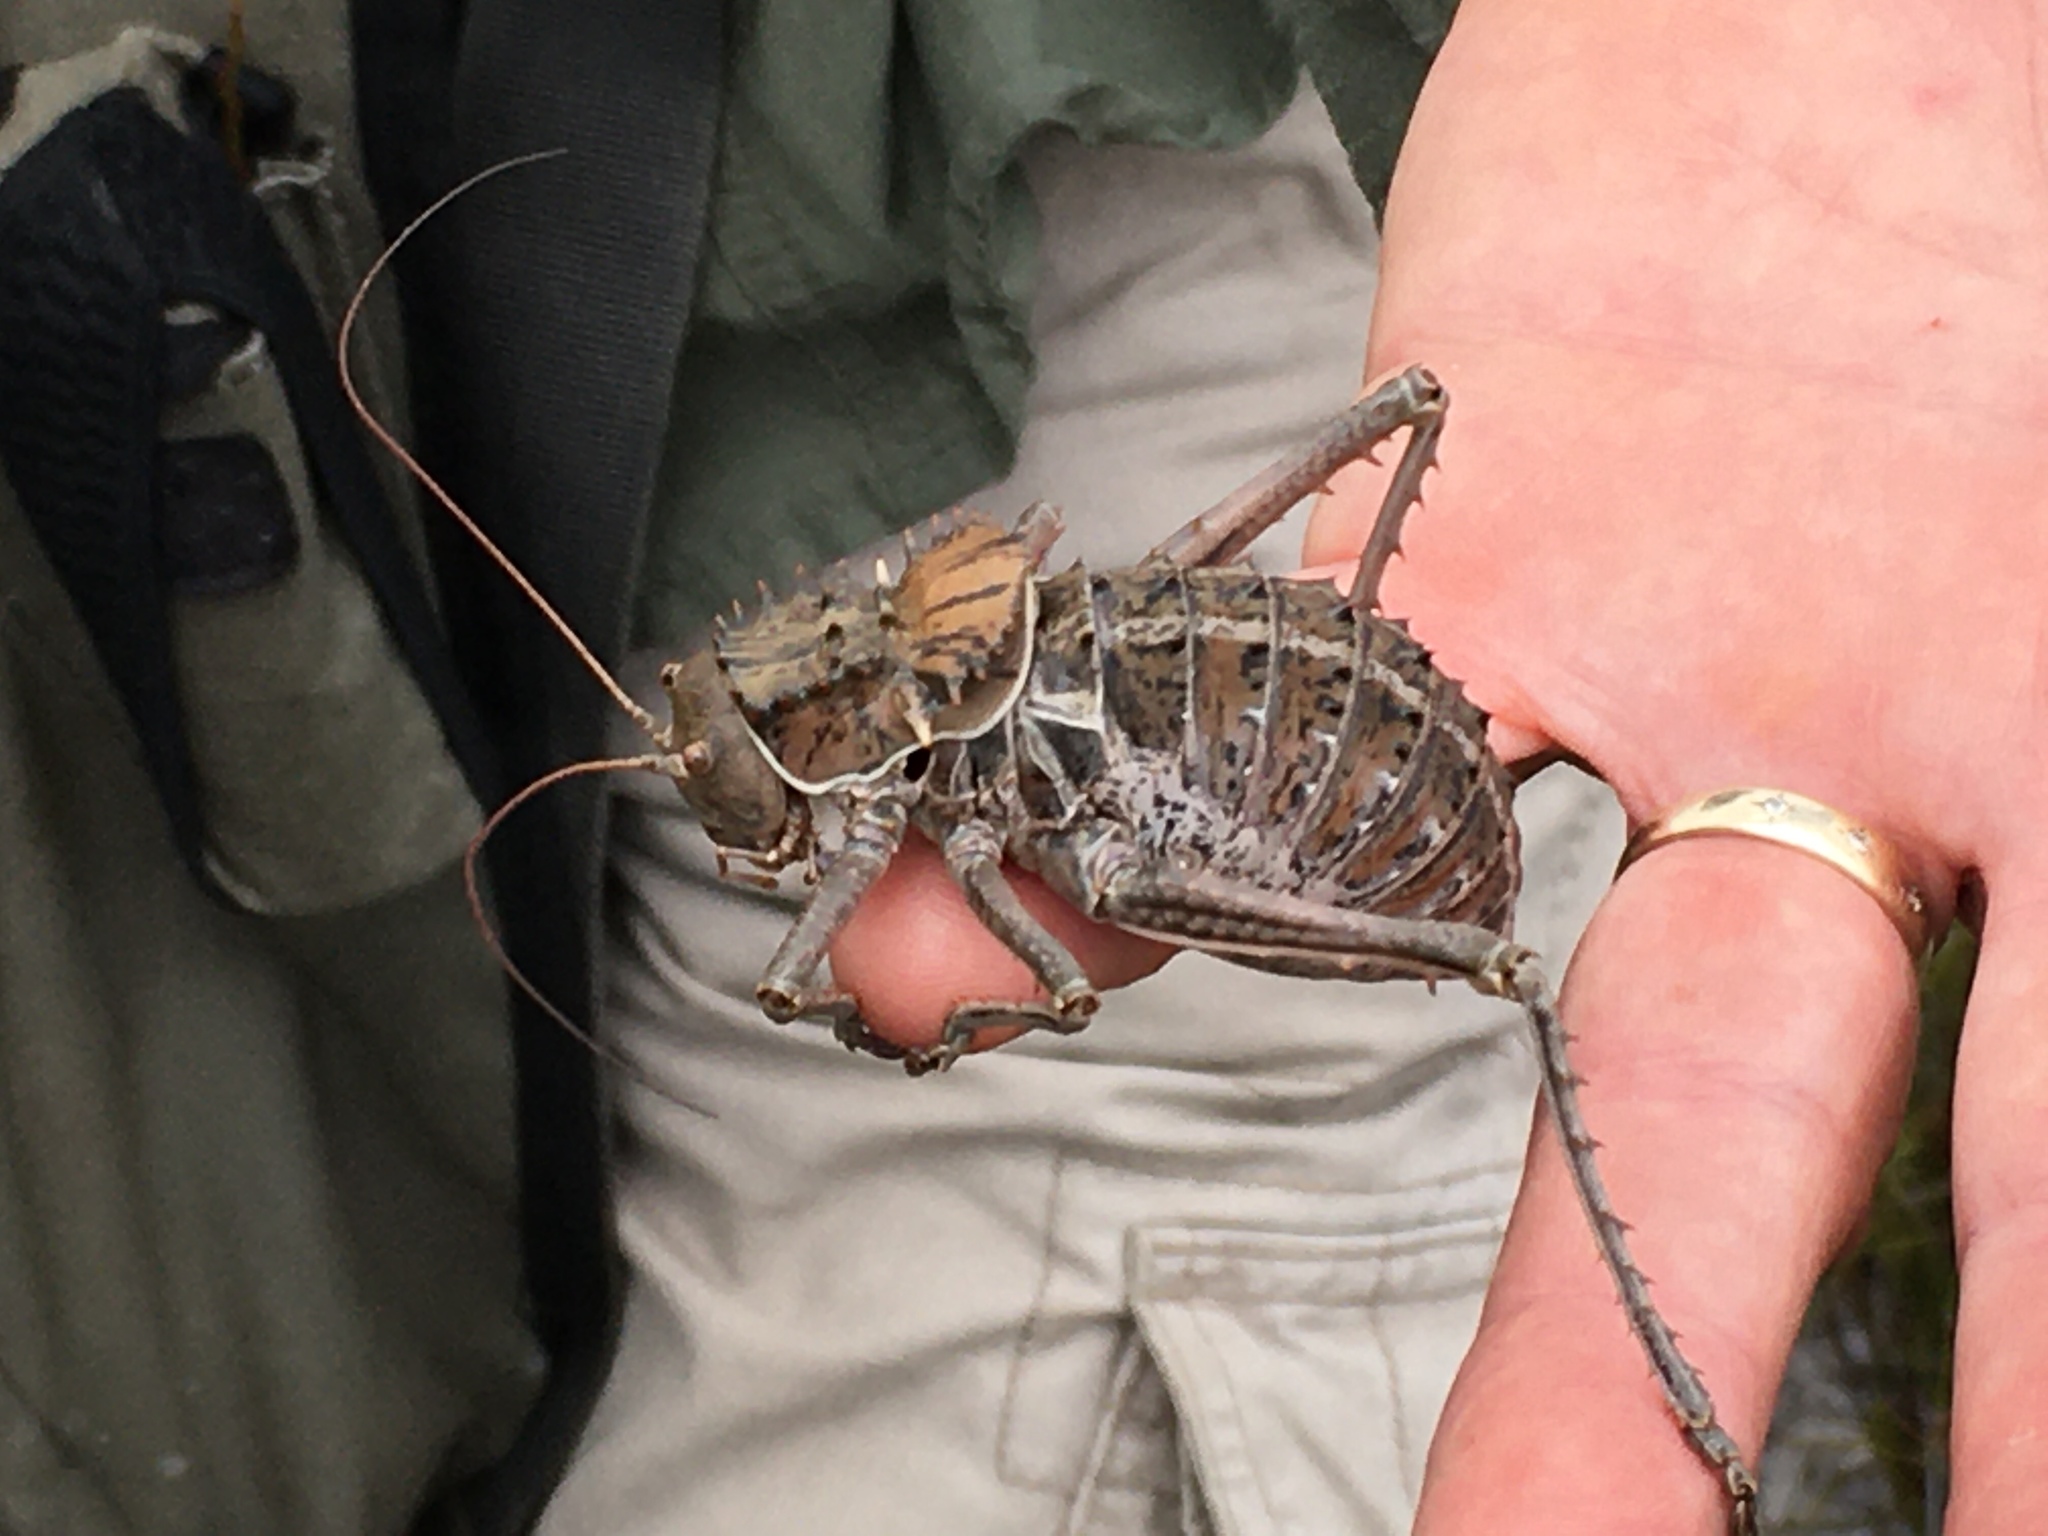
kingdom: Animalia
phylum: Arthropoda
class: Insecta
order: Orthoptera
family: Tettigoniidae
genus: Hetrodes
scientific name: Hetrodes pupus
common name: Koringkriek
